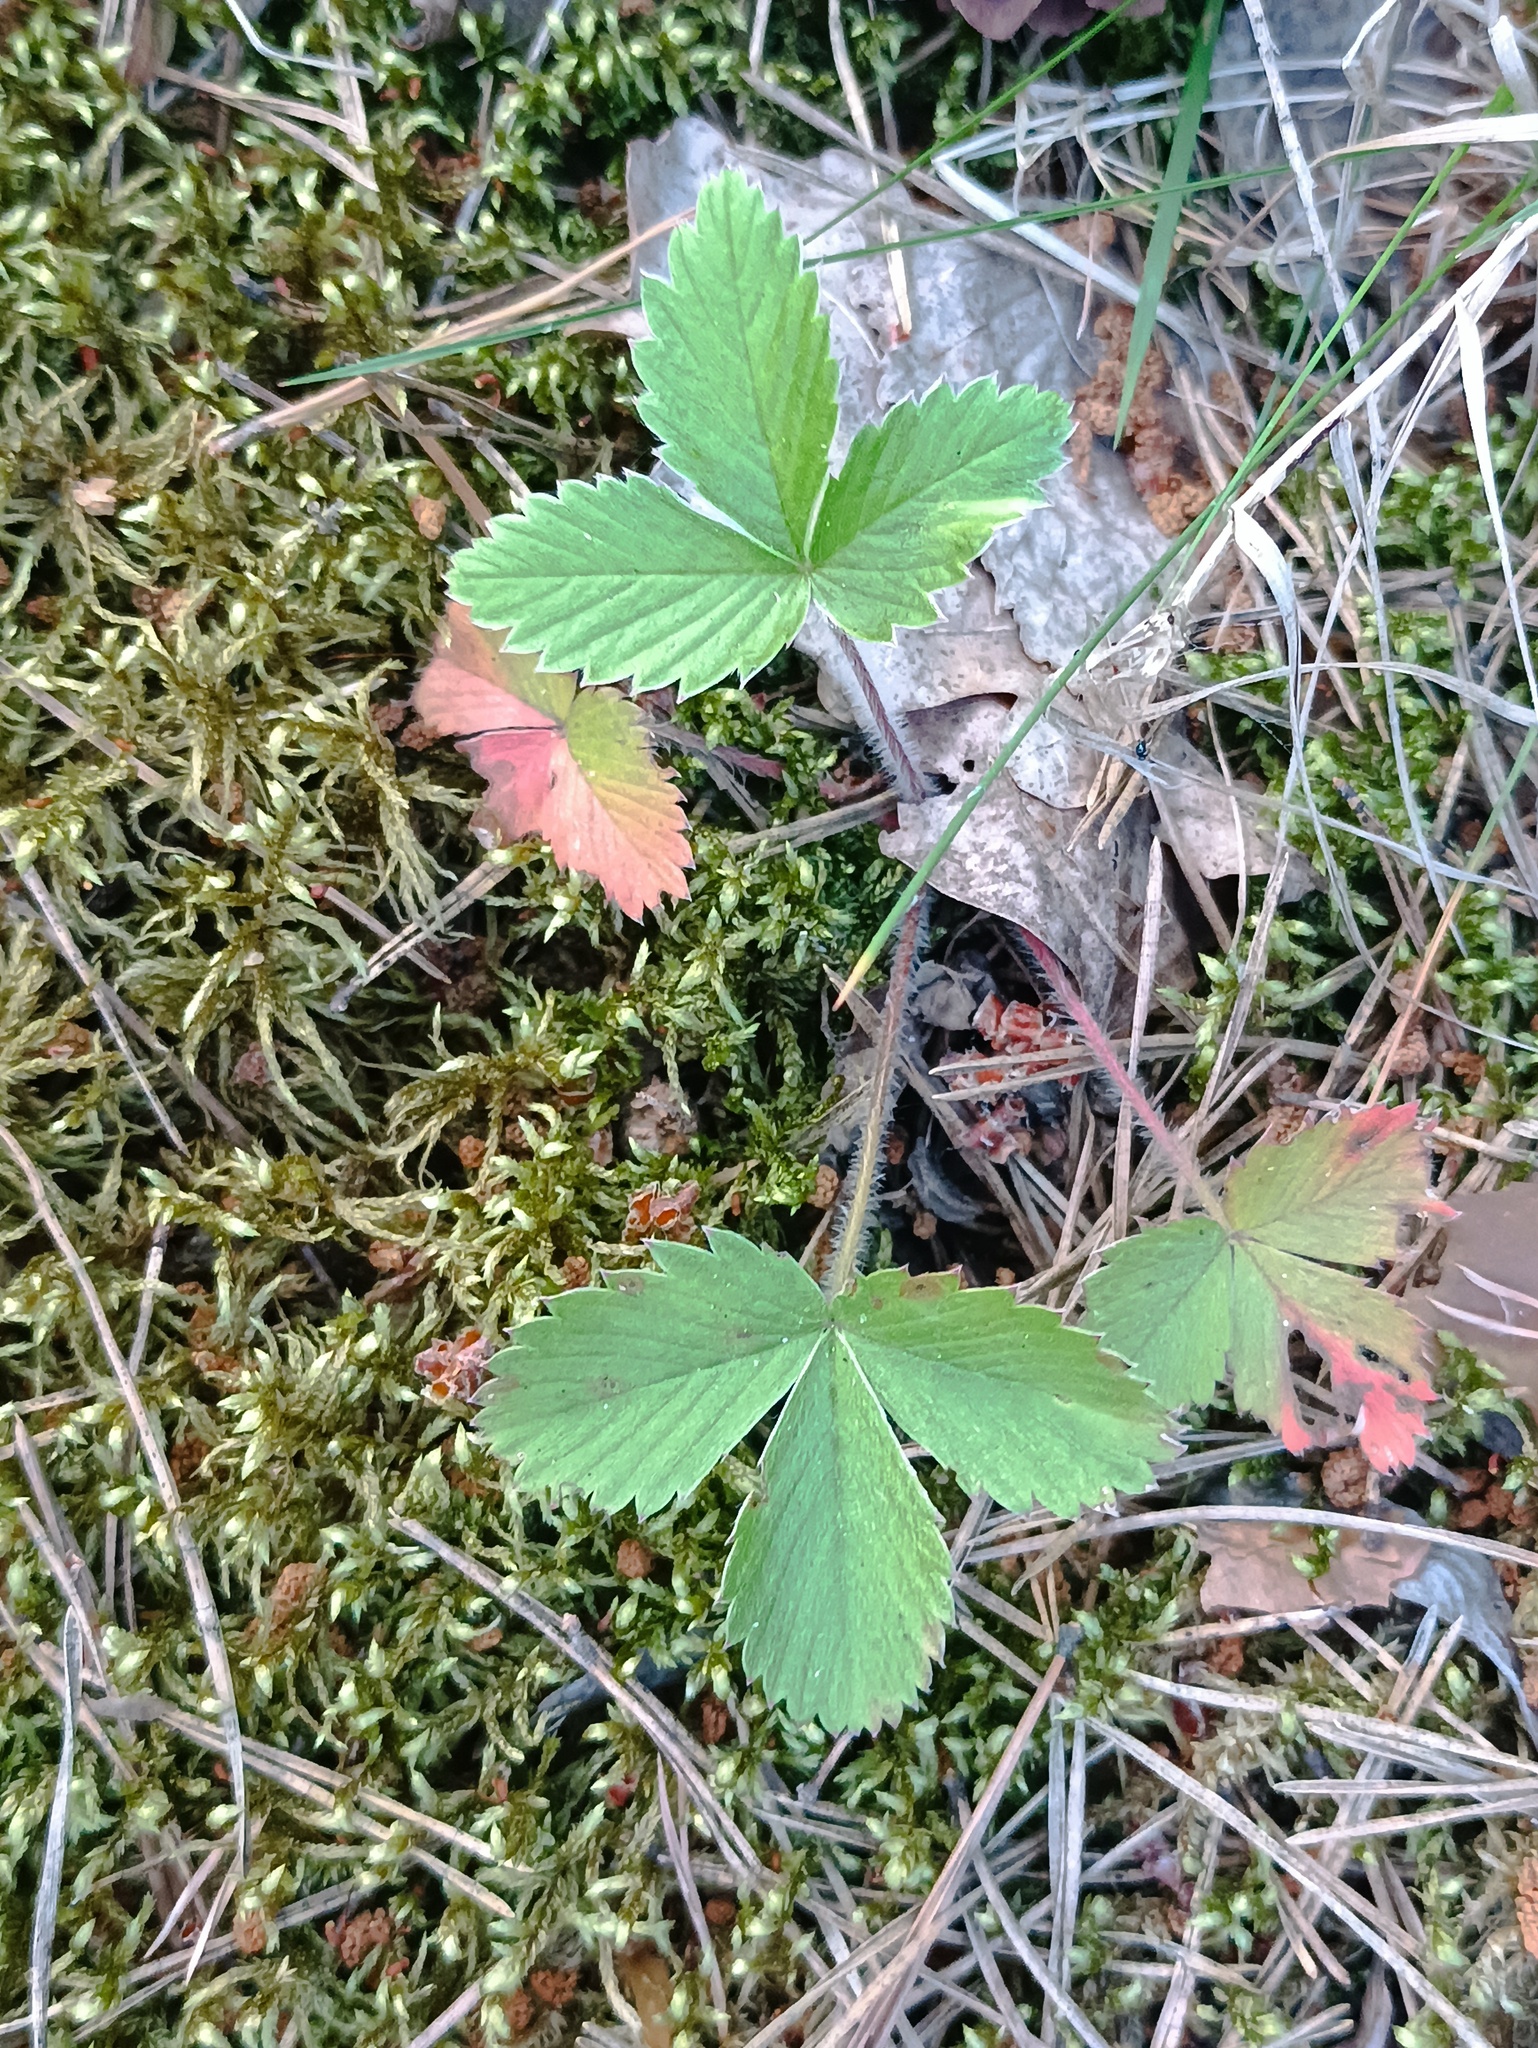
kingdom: Plantae
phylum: Tracheophyta
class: Magnoliopsida
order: Rosales
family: Rosaceae
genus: Fragaria
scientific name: Fragaria vesca
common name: Wild strawberry
